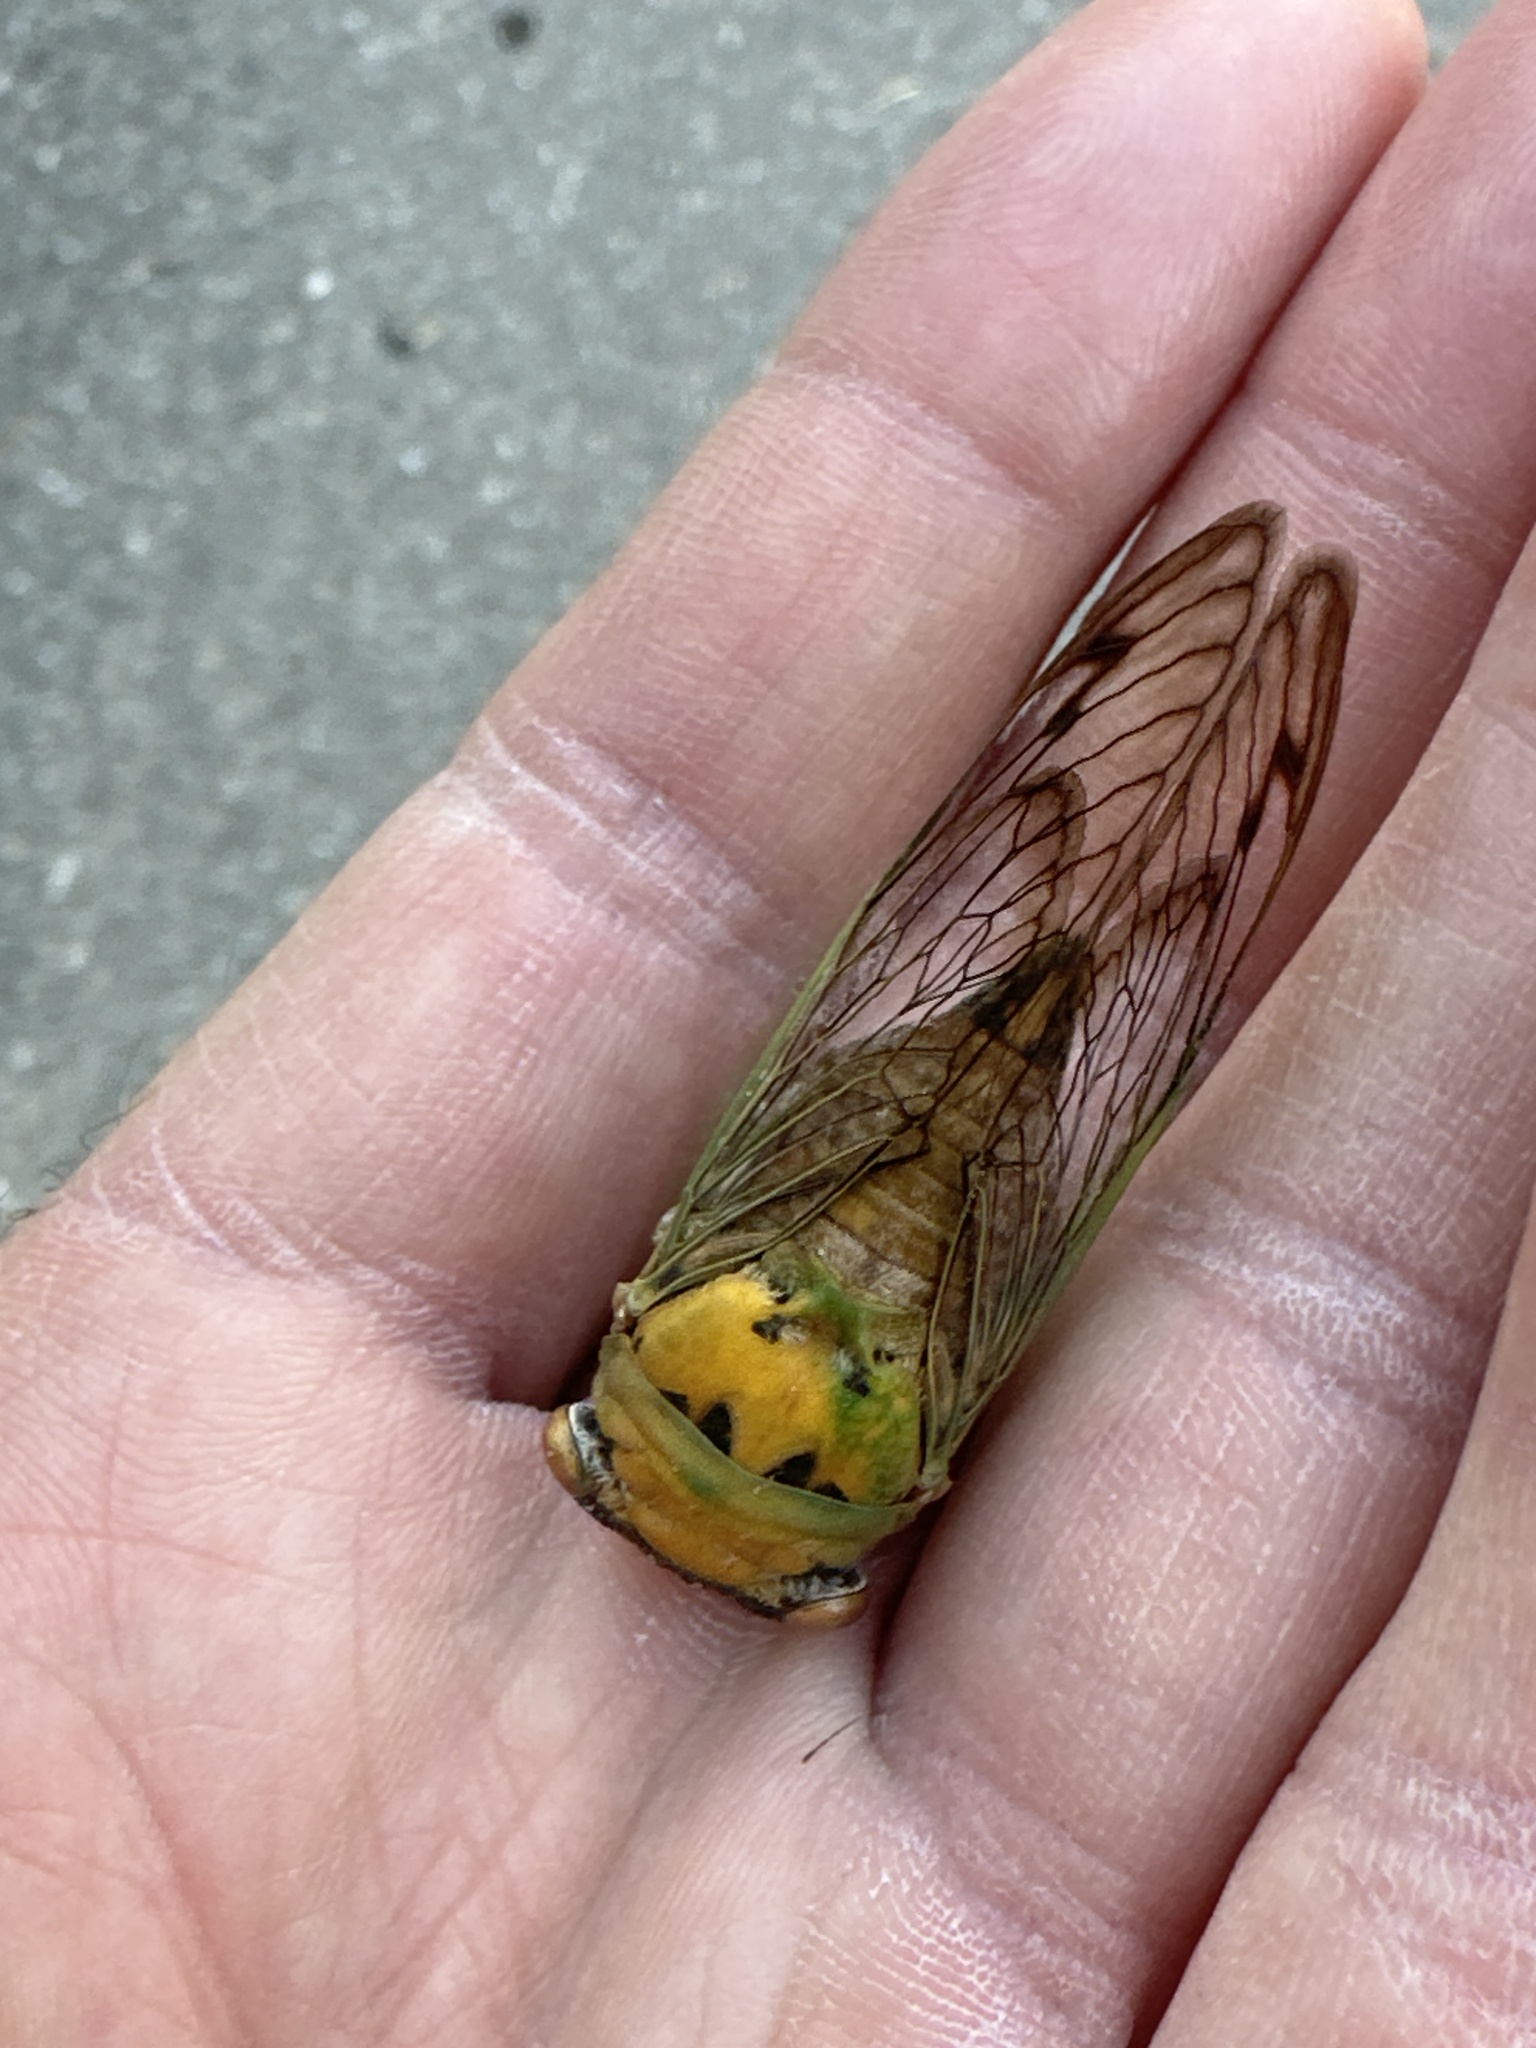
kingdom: Animalia
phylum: Arthropoda
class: Insecta
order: Hemiptera
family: Cicadidae
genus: Neotibicen
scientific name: Neotibicen superbus
